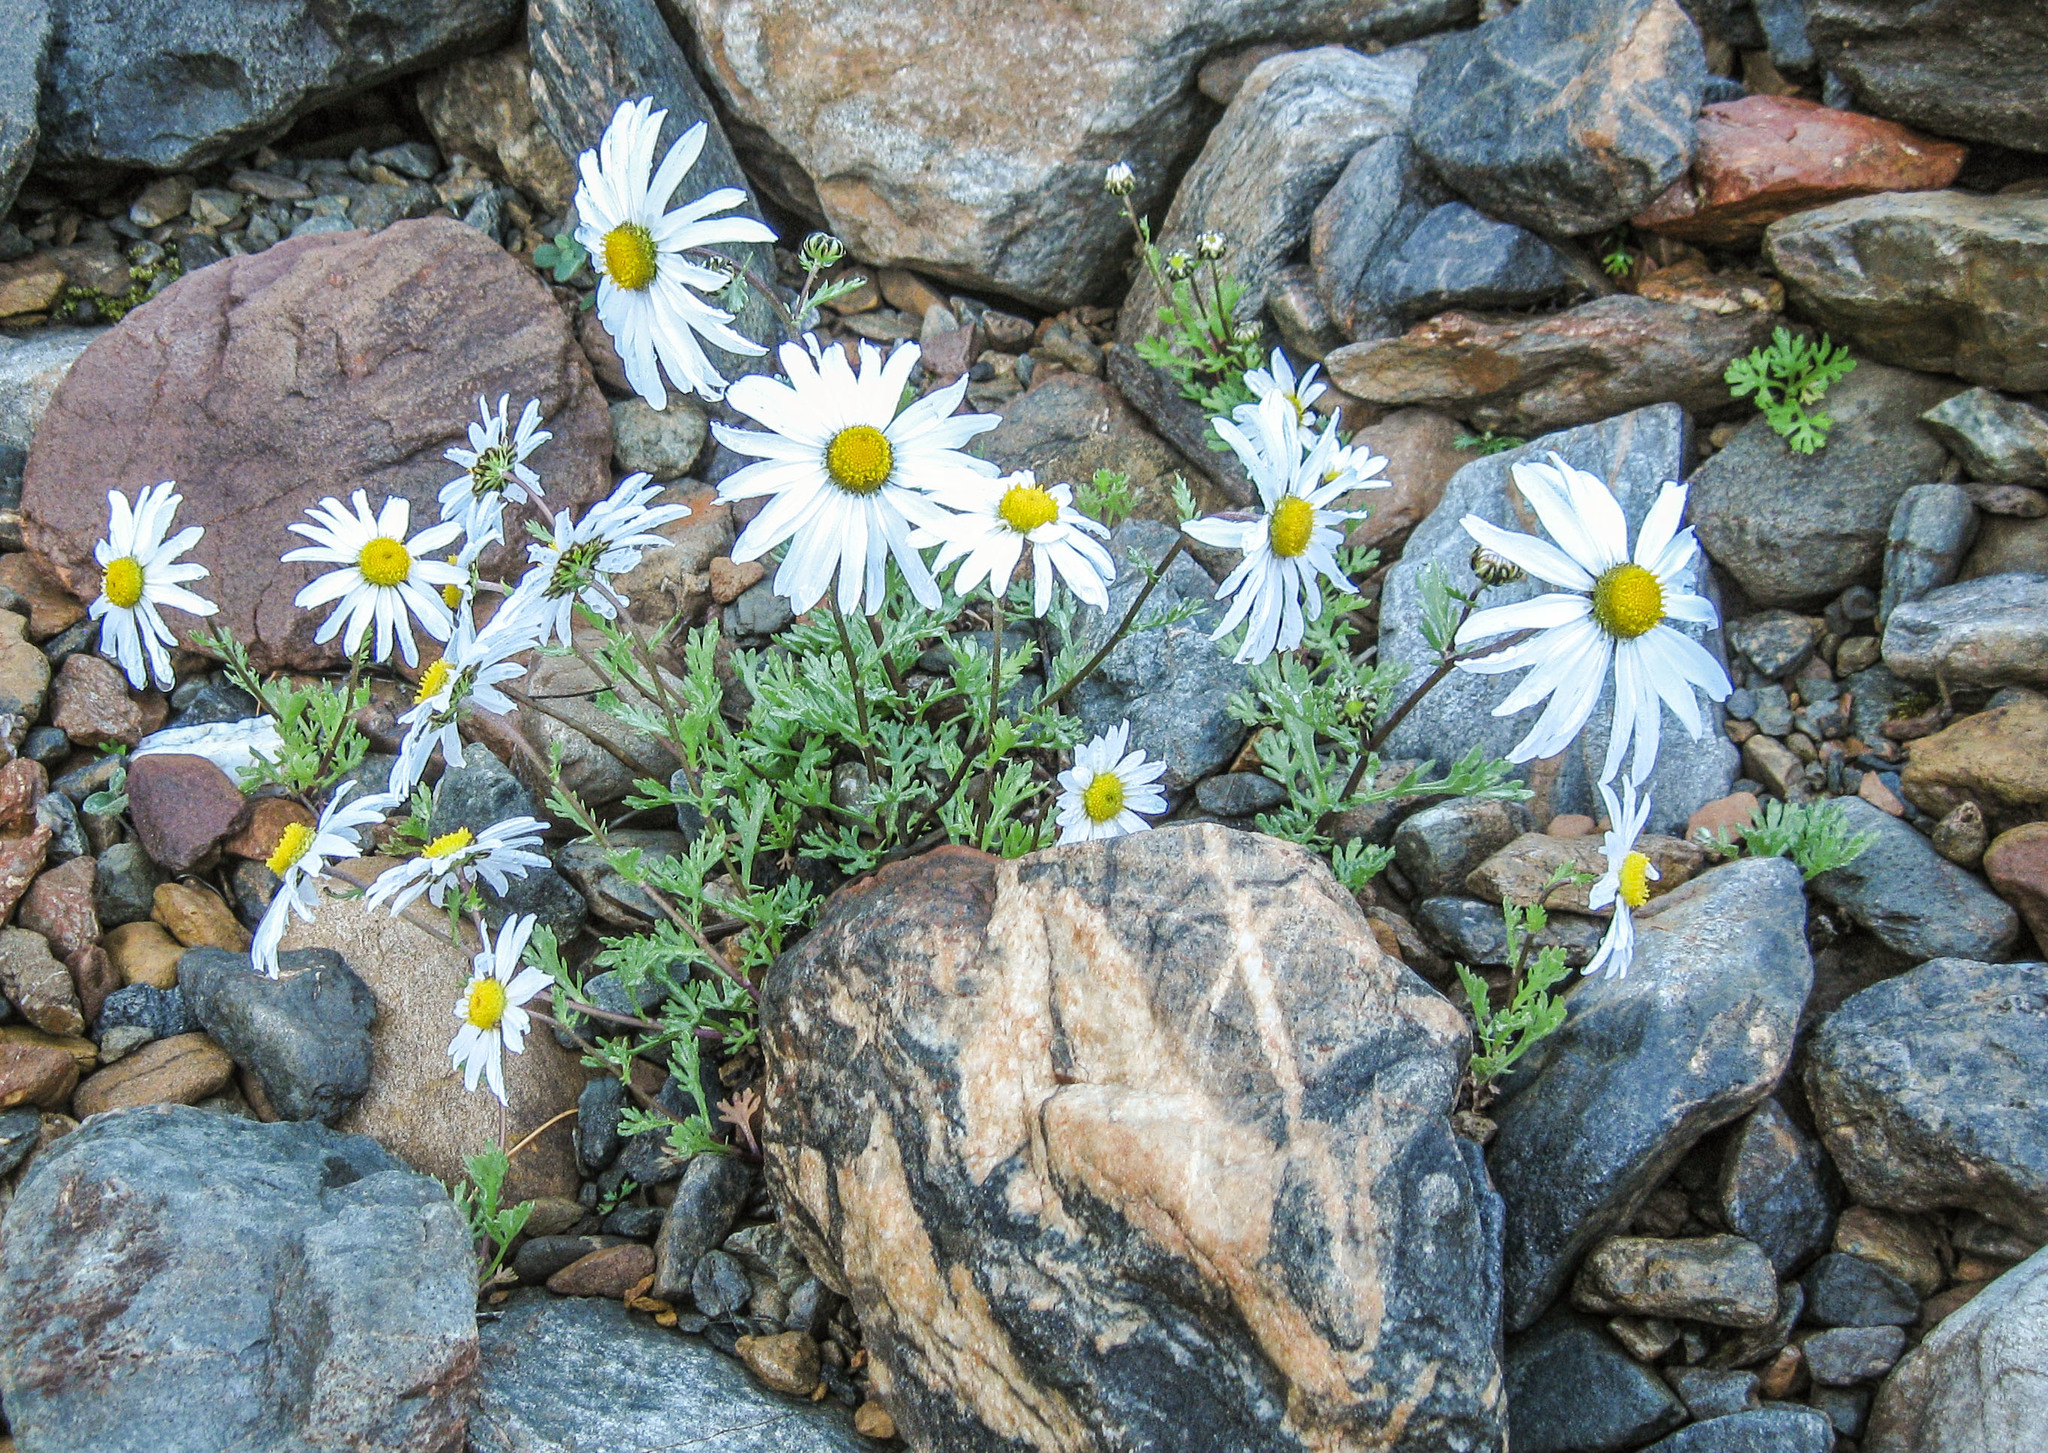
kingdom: Plantae
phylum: Tracheophyta
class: Magnoliopsida
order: Asterales
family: Asteraceae
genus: Chrysanthemum
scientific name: Chrysanthemum zawadzkii
